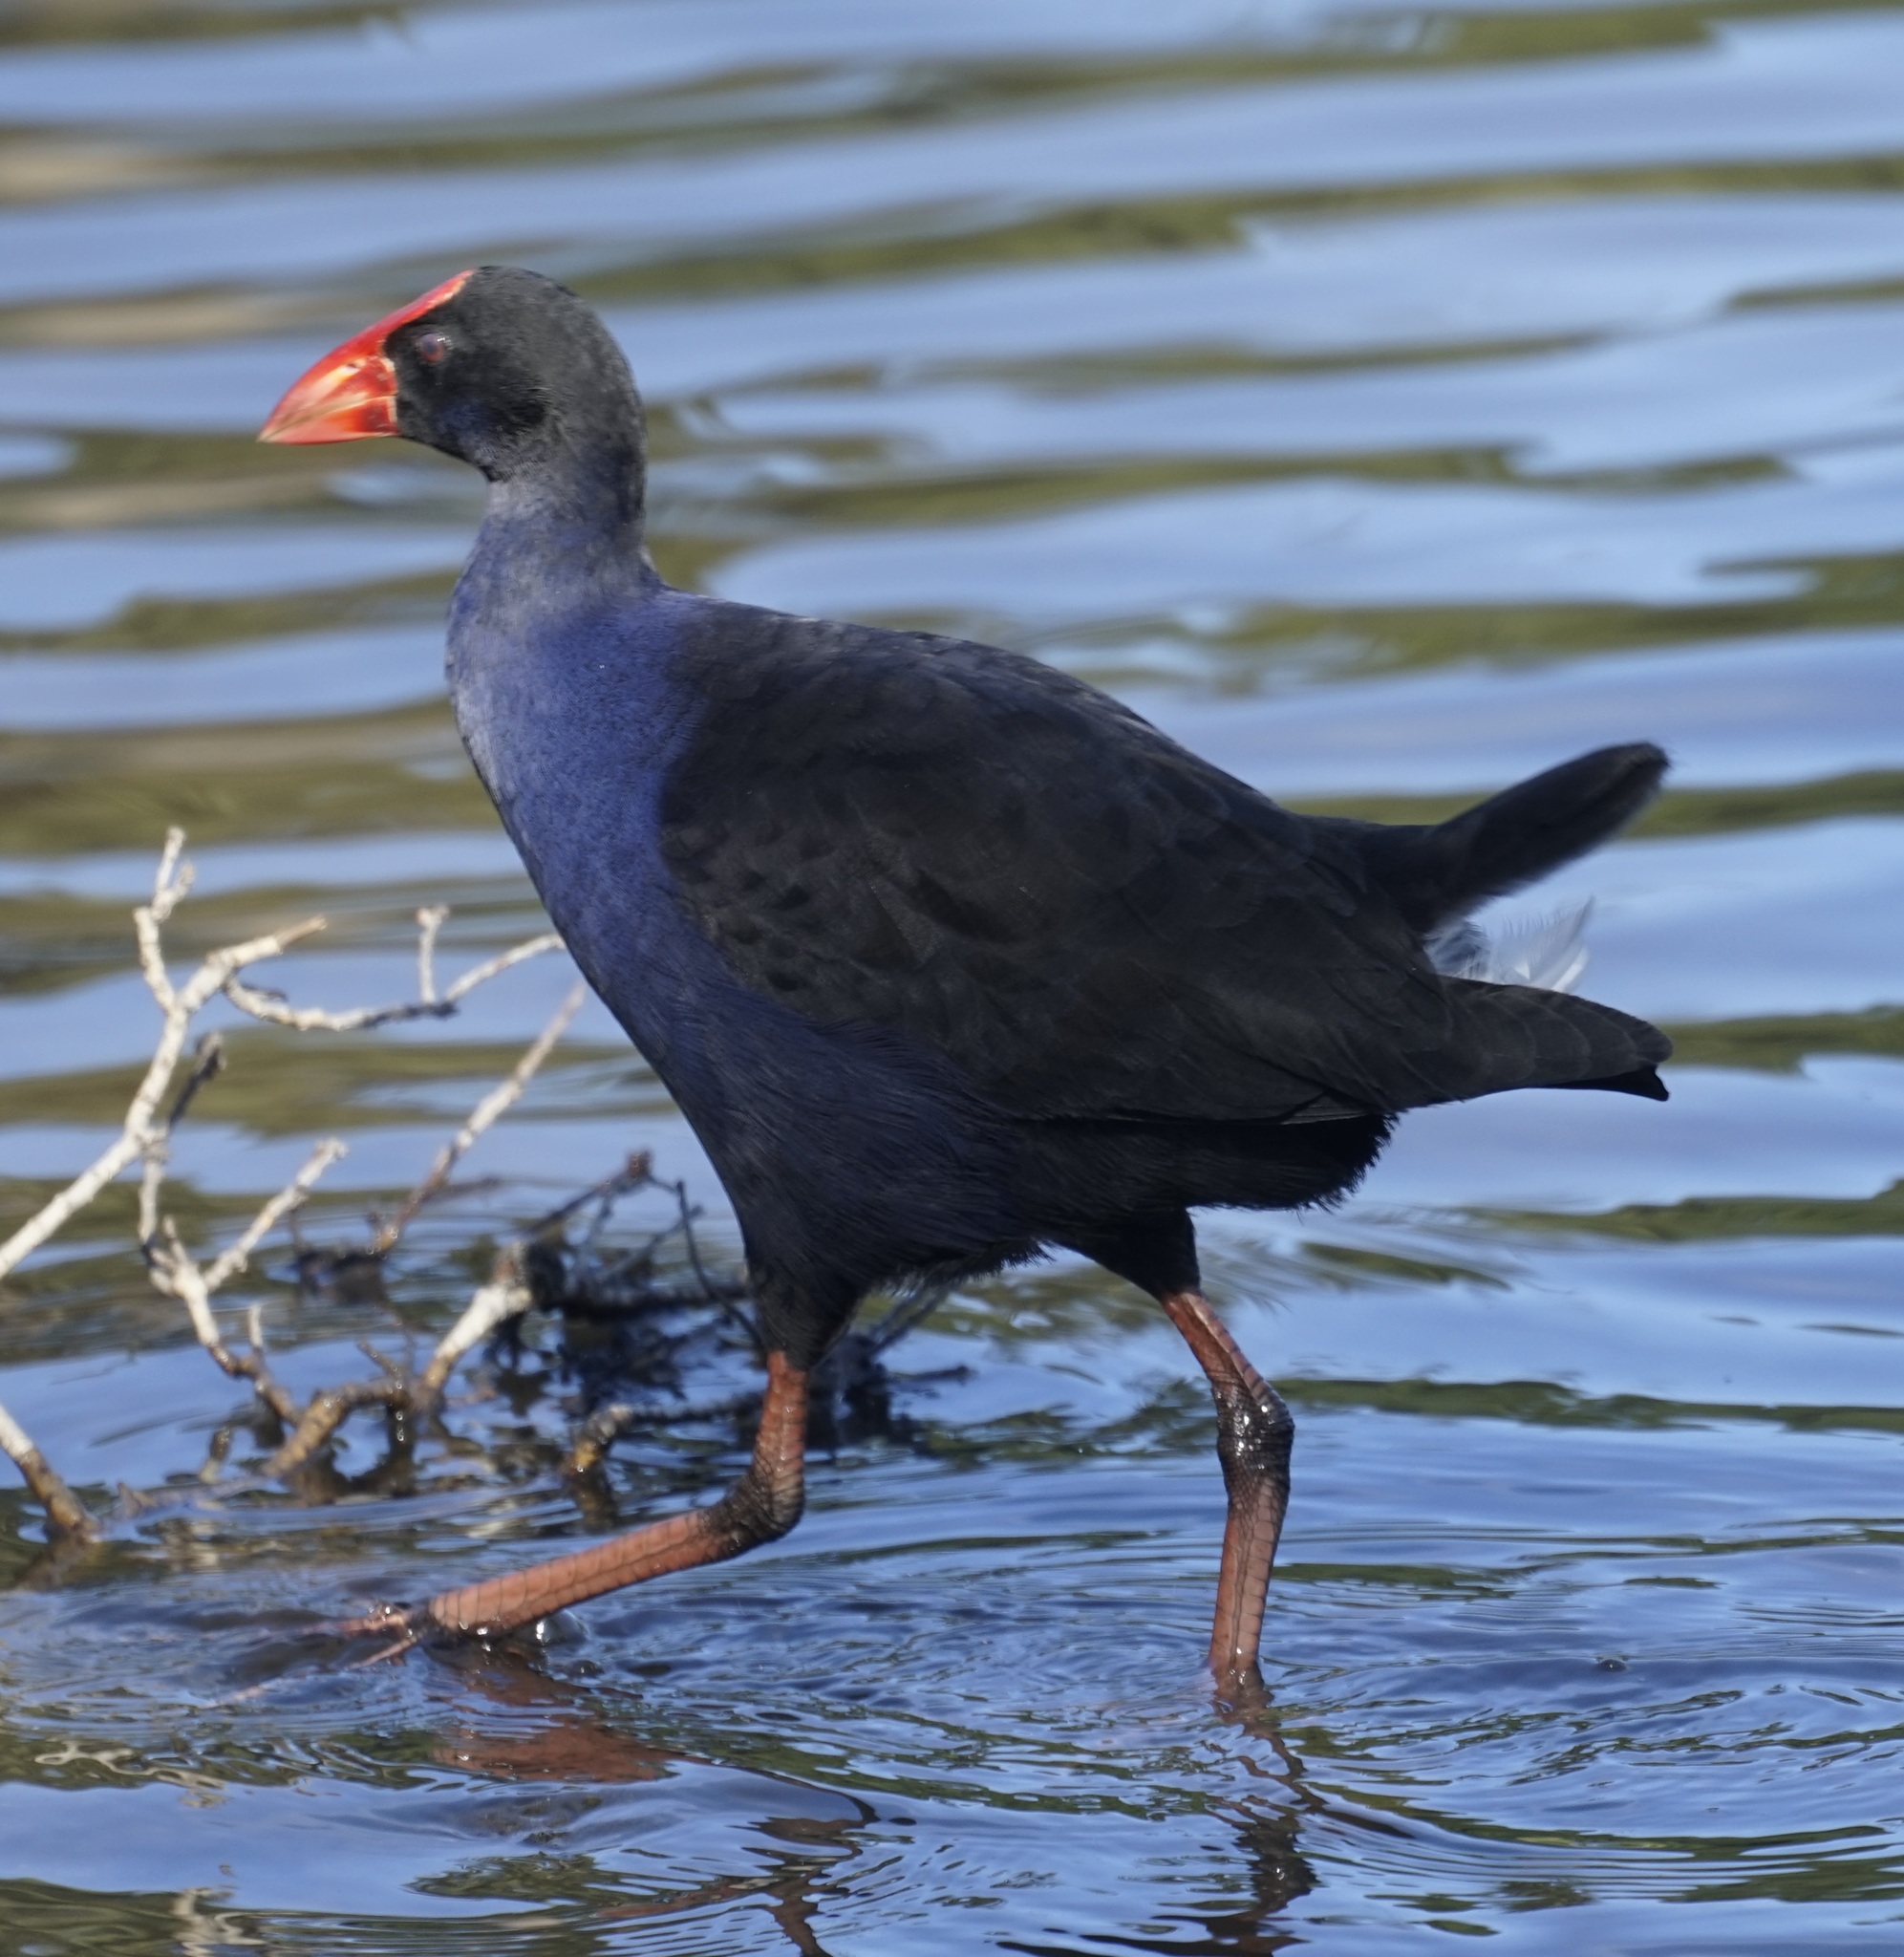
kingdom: Animalia
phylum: Chordata
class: Aves
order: Gruiformes
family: Rallidae
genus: Porphyrio
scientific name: Porphyrio melanotus
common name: Australasian swamphen
